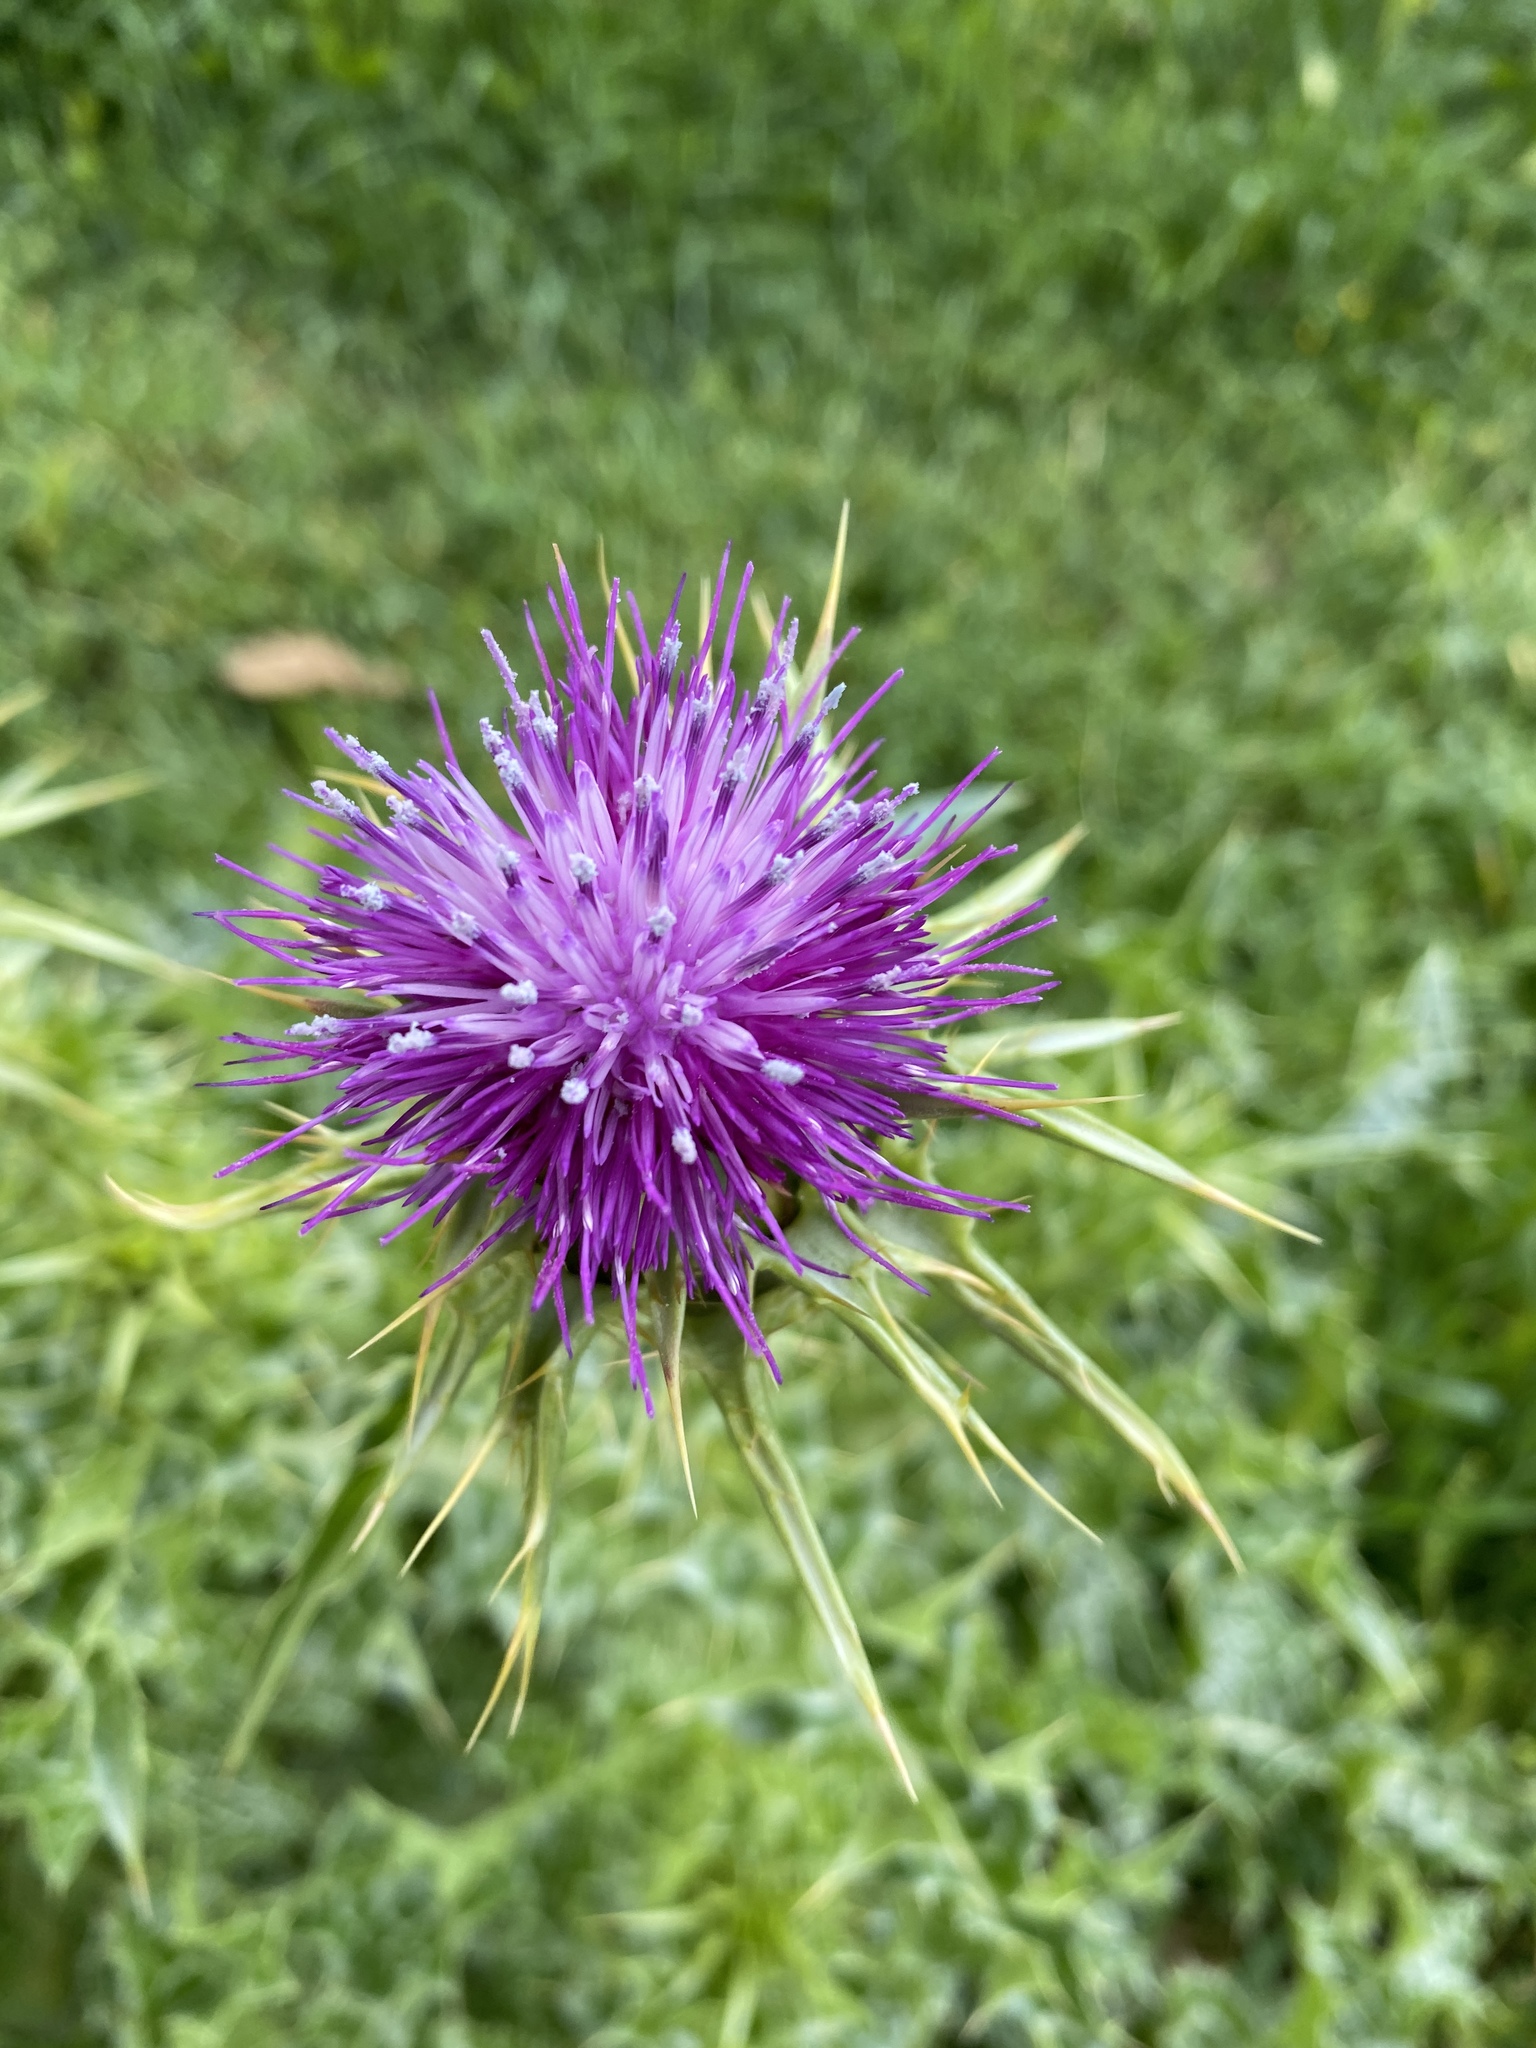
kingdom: Plantae
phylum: Tracheophyta
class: Magnoliopsida
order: Asterales
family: Asteraceae
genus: Silybum
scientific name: Silybum marianum
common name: Milk thistle
